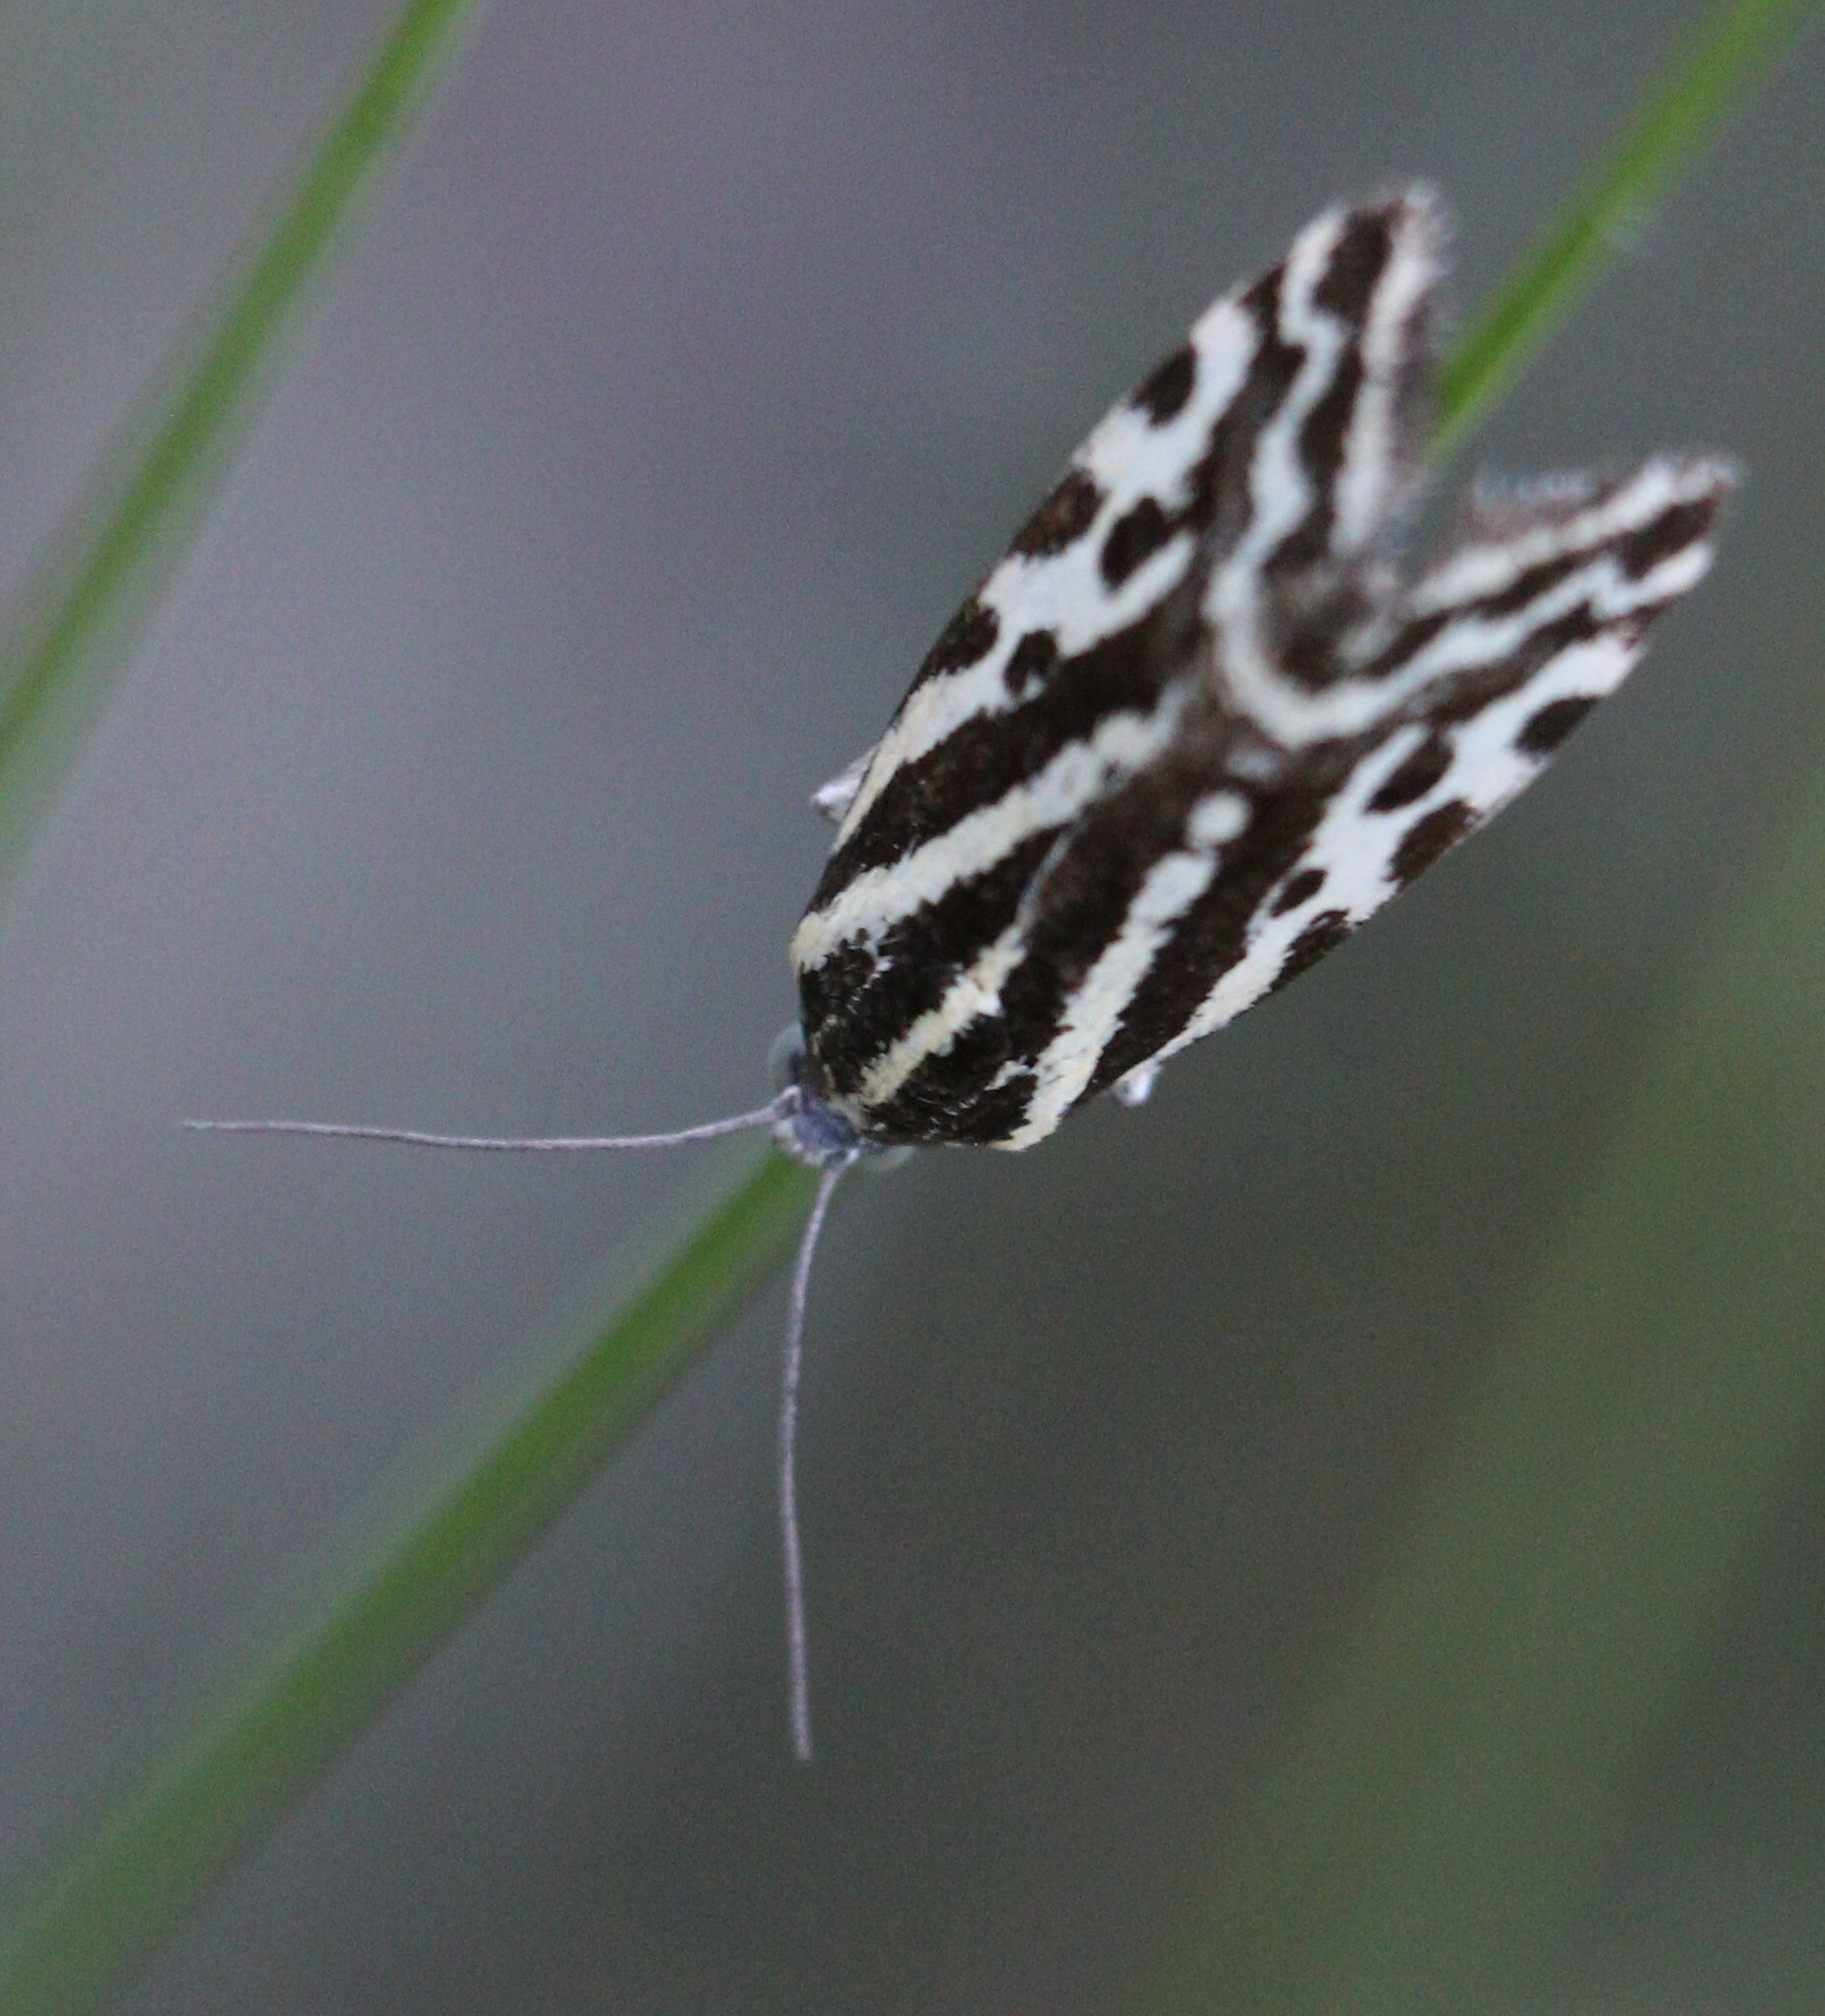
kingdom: Animalia
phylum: Arthropoda
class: Insecta
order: Lepidoptera
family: Noctuidae
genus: Acontia
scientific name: Acontia trabealis
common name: Spotted sulphur
